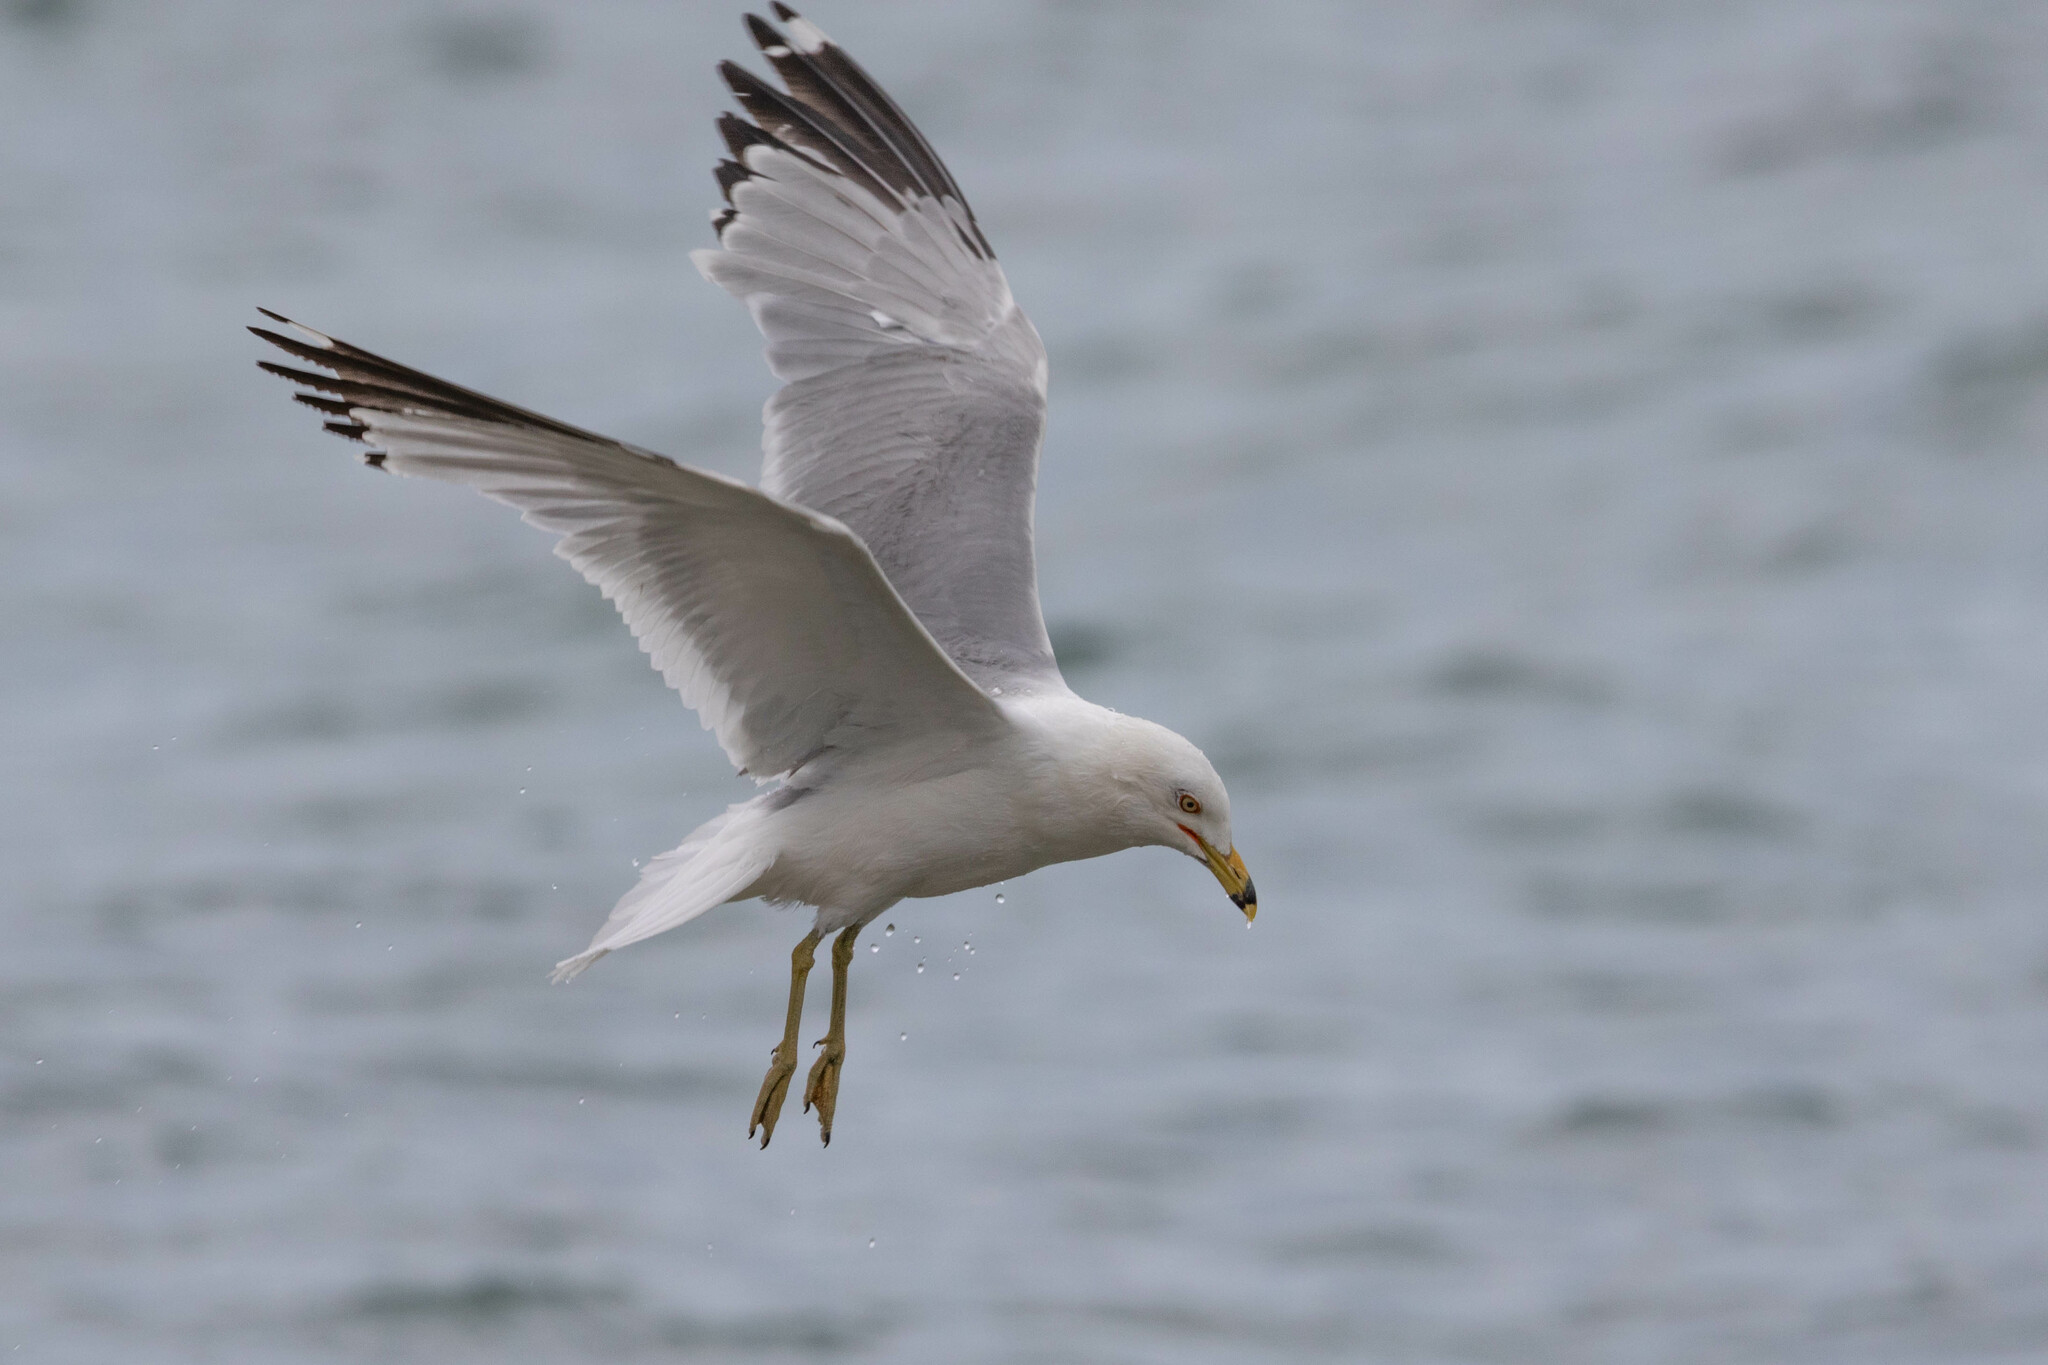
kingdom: Animalia
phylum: Chordata
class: Aves
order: Charadriiformes
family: Laridae
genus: Larus
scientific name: Larus delawarensis
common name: Ring-billed gull
